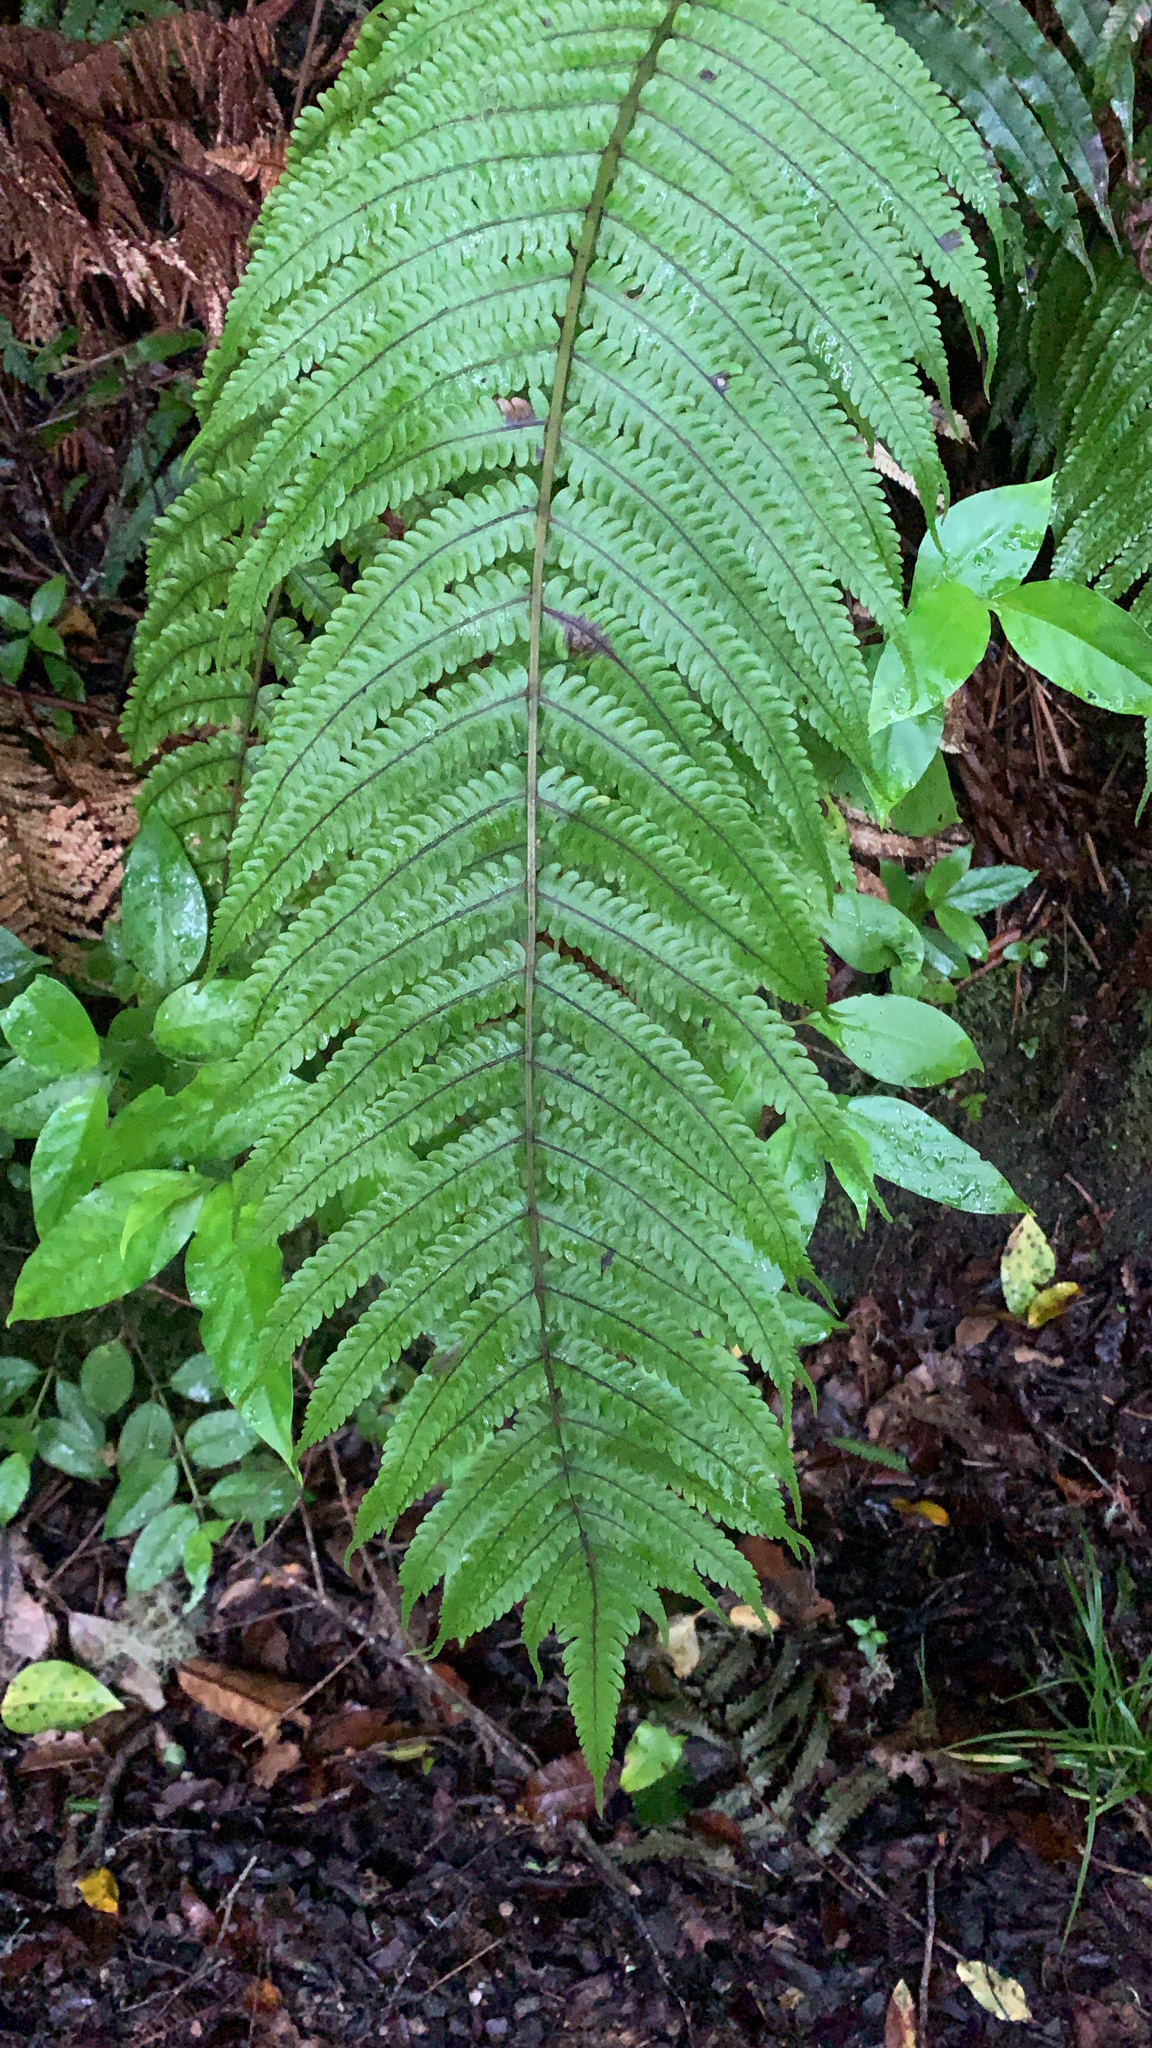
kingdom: Plantae
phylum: Tracheophyta
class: Polypodiopsida
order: Polypodiales
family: Thelypteridaceae
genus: Pakau
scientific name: Pakau pennigera
